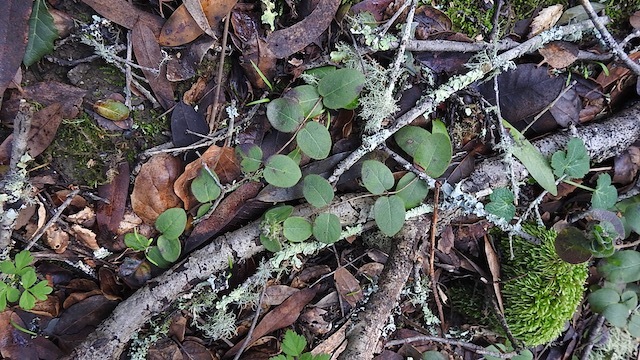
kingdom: Plantae
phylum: Tracheophyta
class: Magnoliopsida
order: Dipsacales
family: Caprifoliaceae
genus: Lonicera
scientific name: Lonicera hispidula
